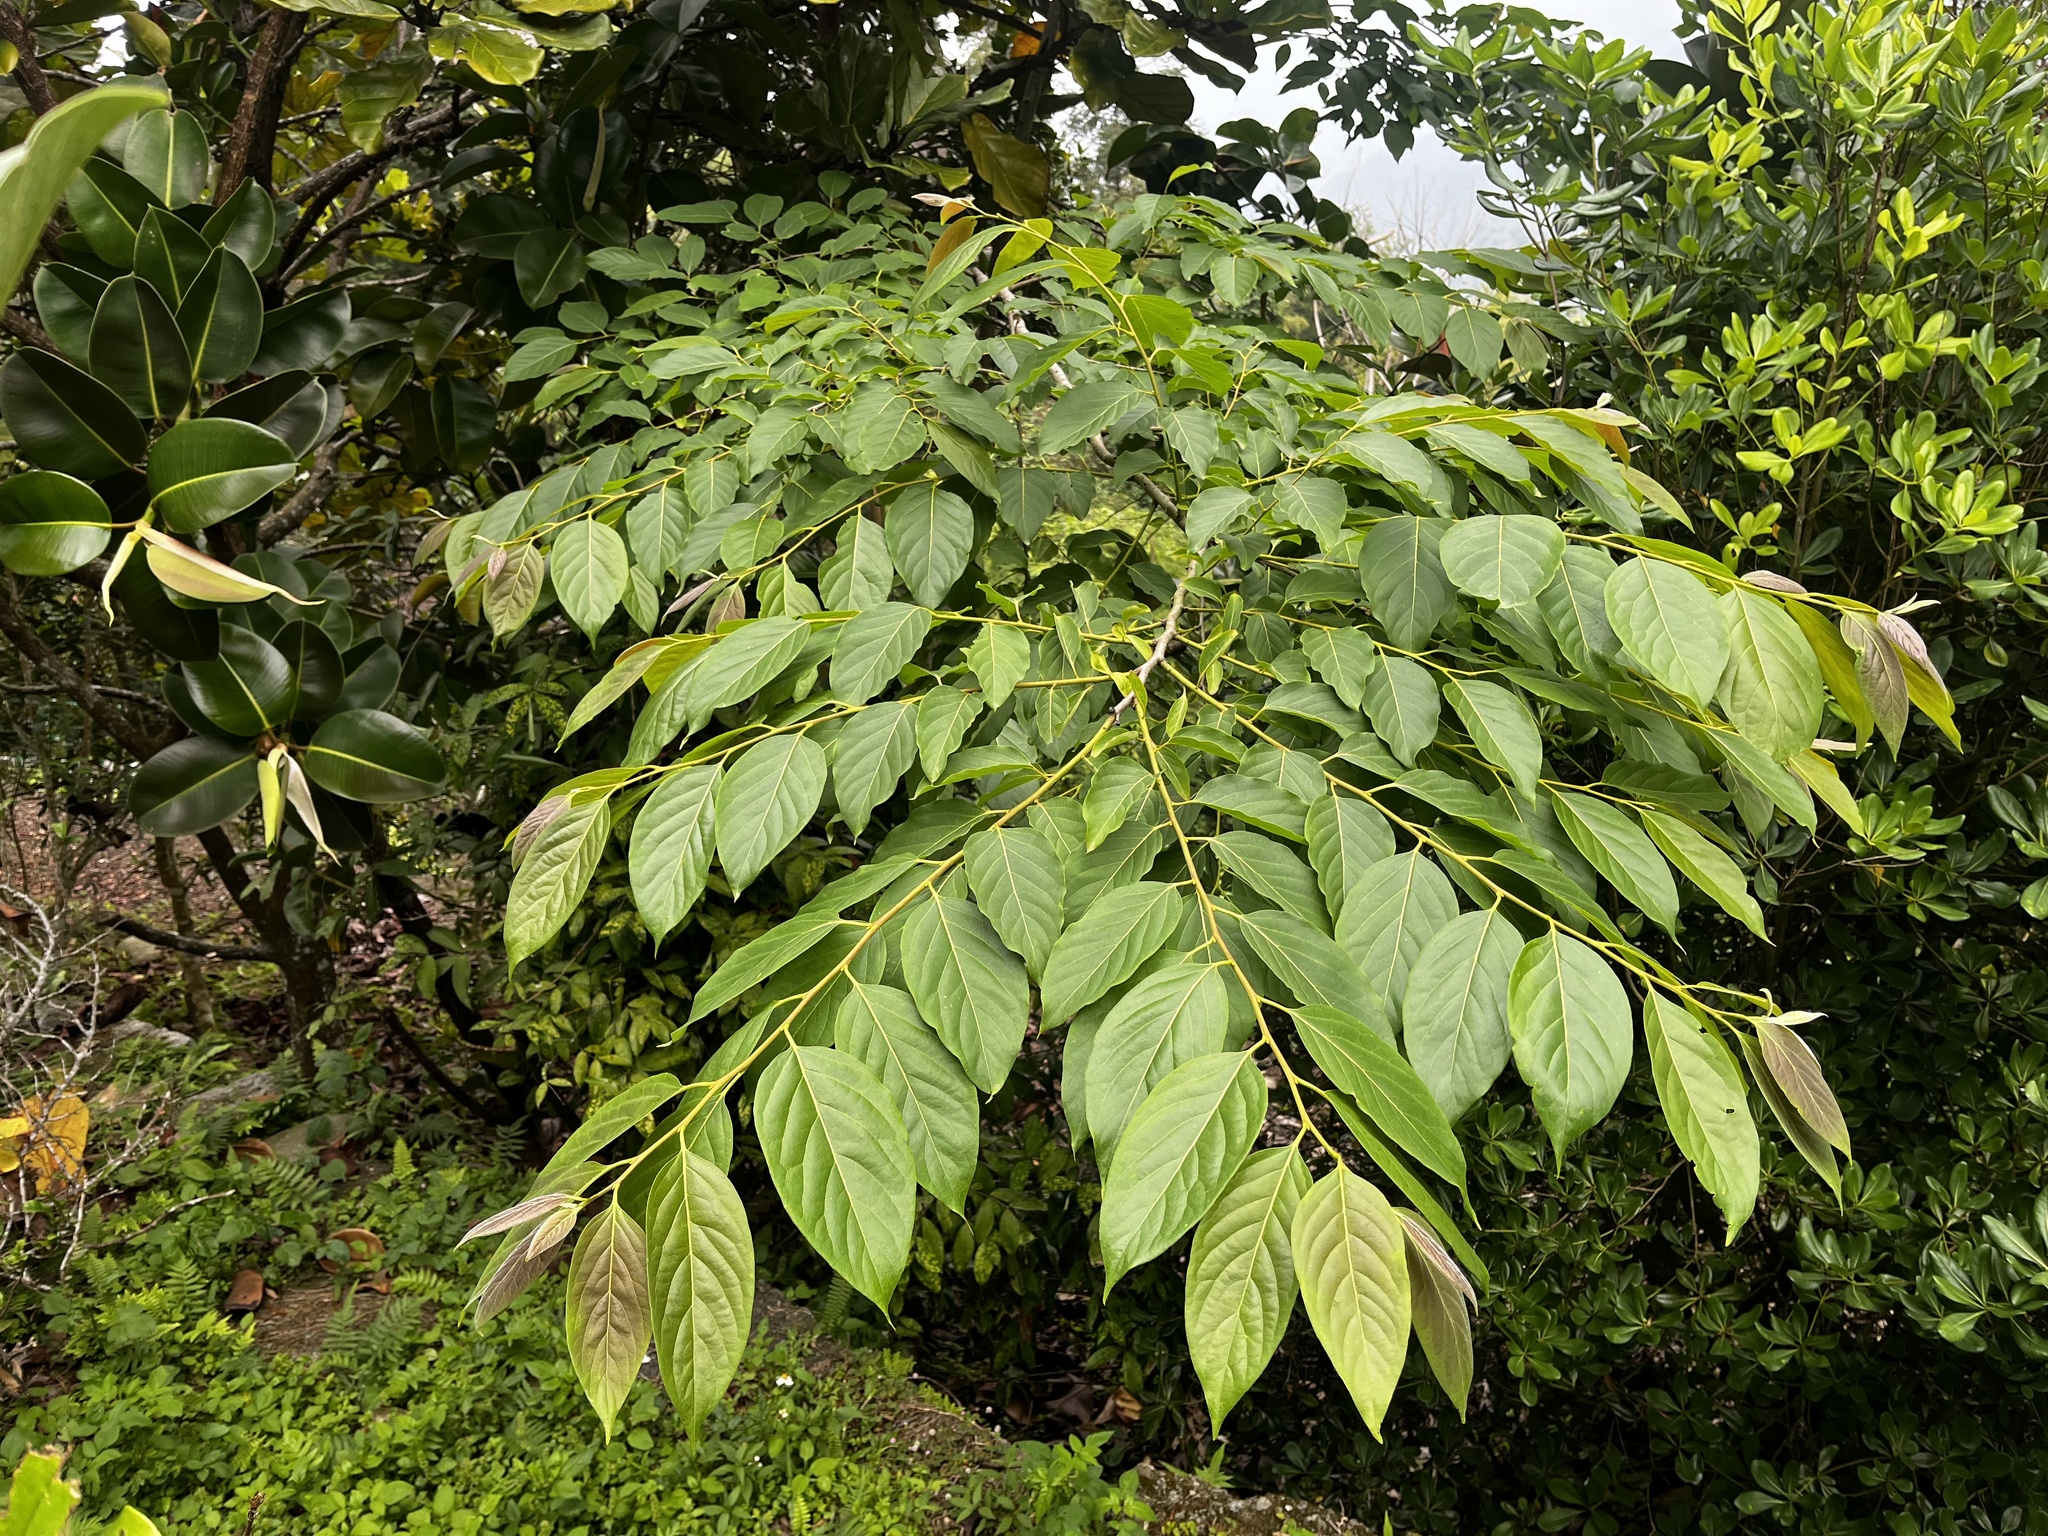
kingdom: Plantae
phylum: Tracheophyta
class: Magnoliopsida
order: Ericales
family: Ebenaceae
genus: Diospyros
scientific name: Diospyros japonica
